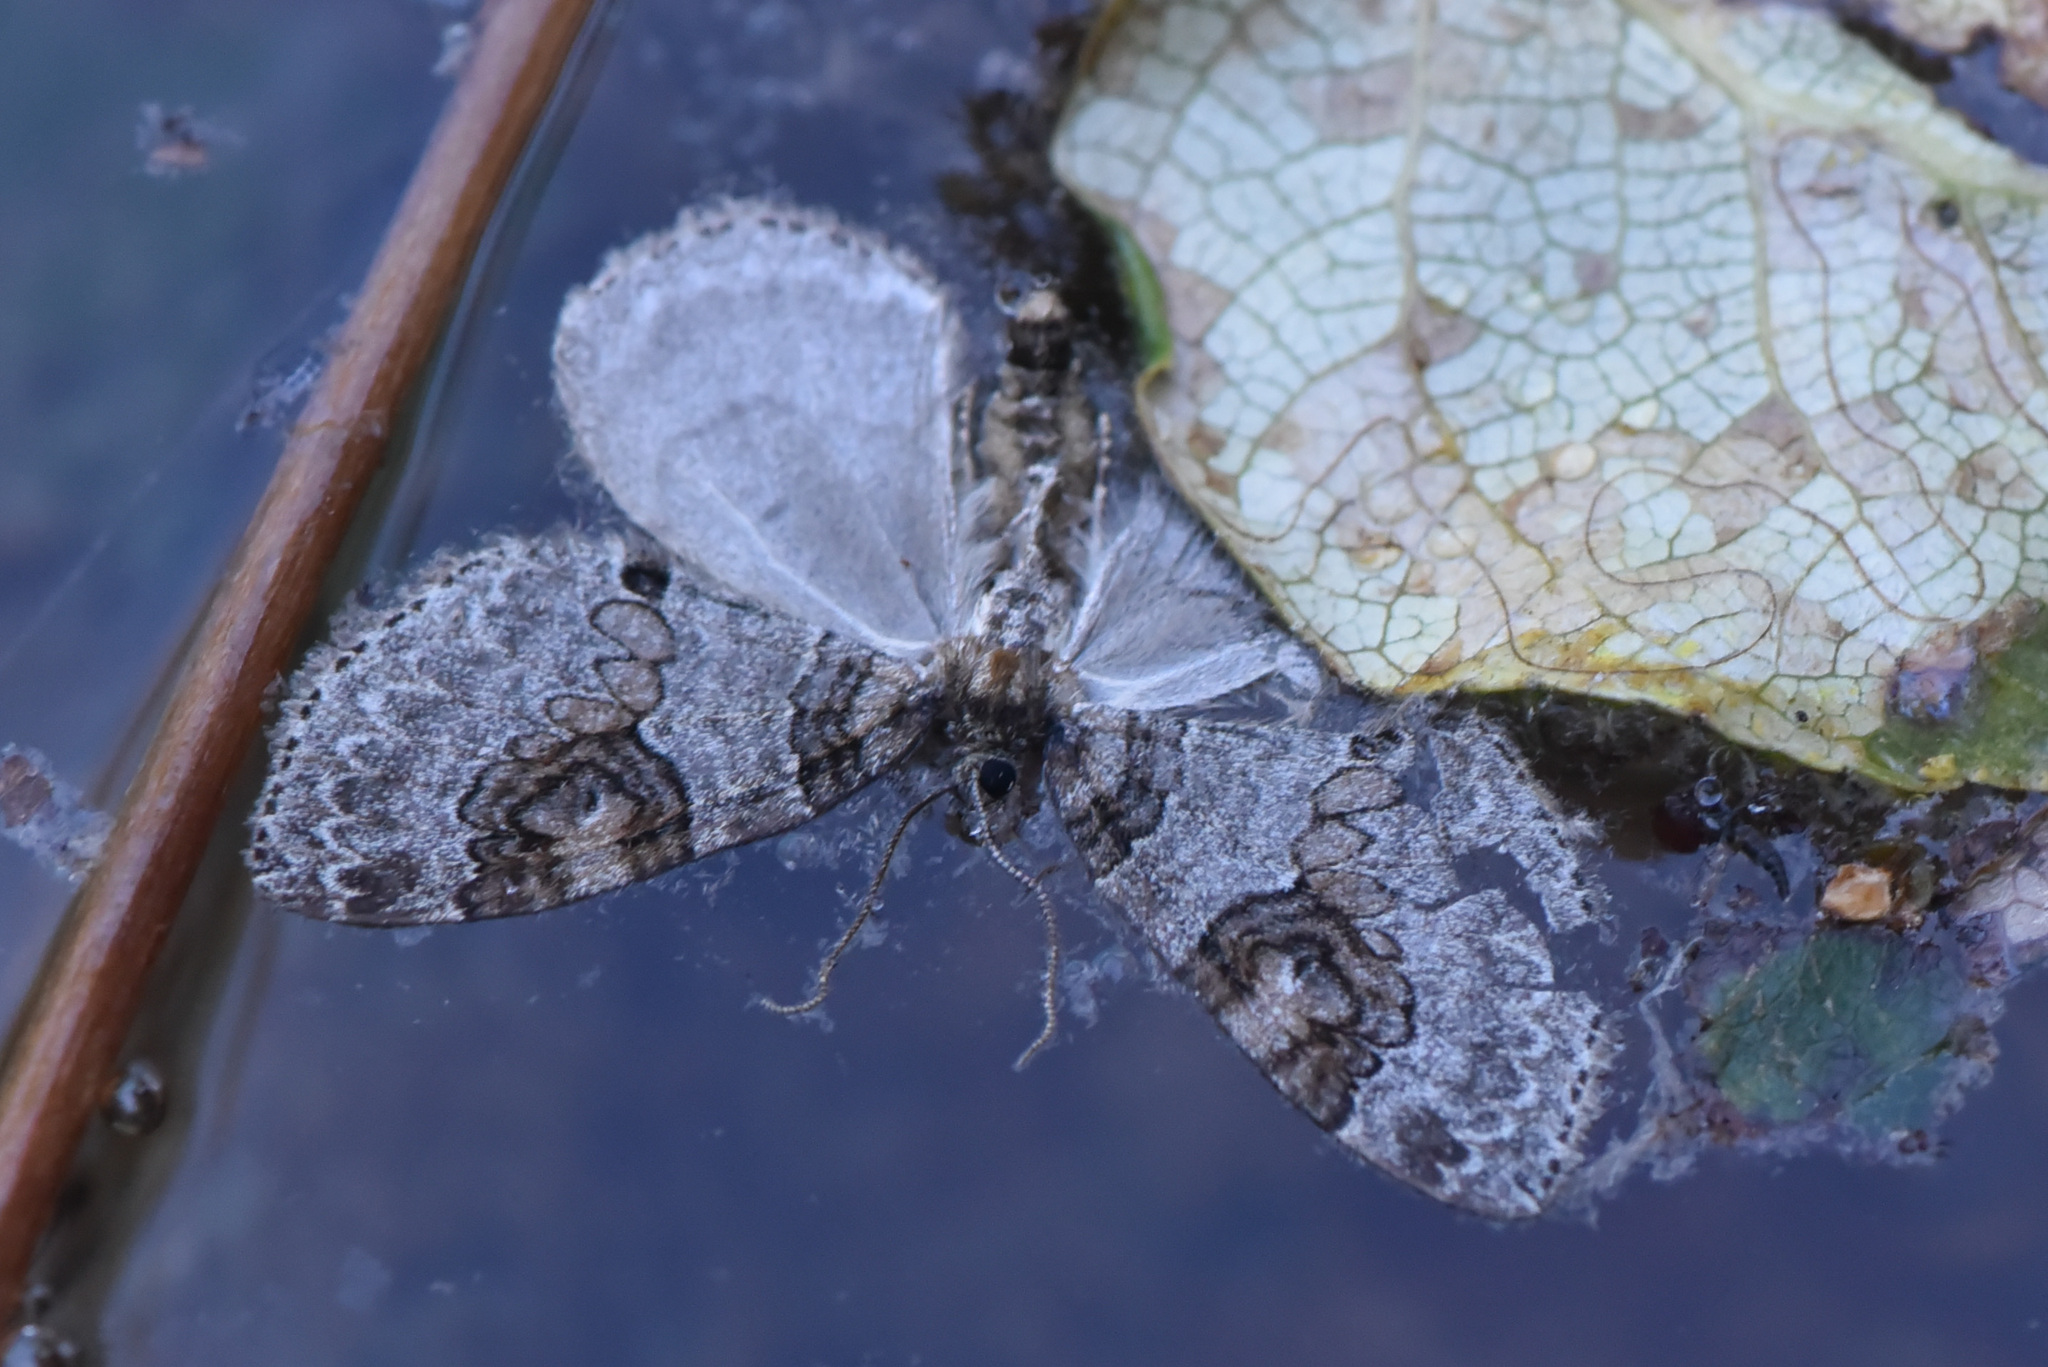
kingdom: Animalia
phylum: Arthropoda
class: Insecta
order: Lepidoptera
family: Geometridae
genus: Plemyria
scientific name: Plemyria georgii
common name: George's carpet moth
